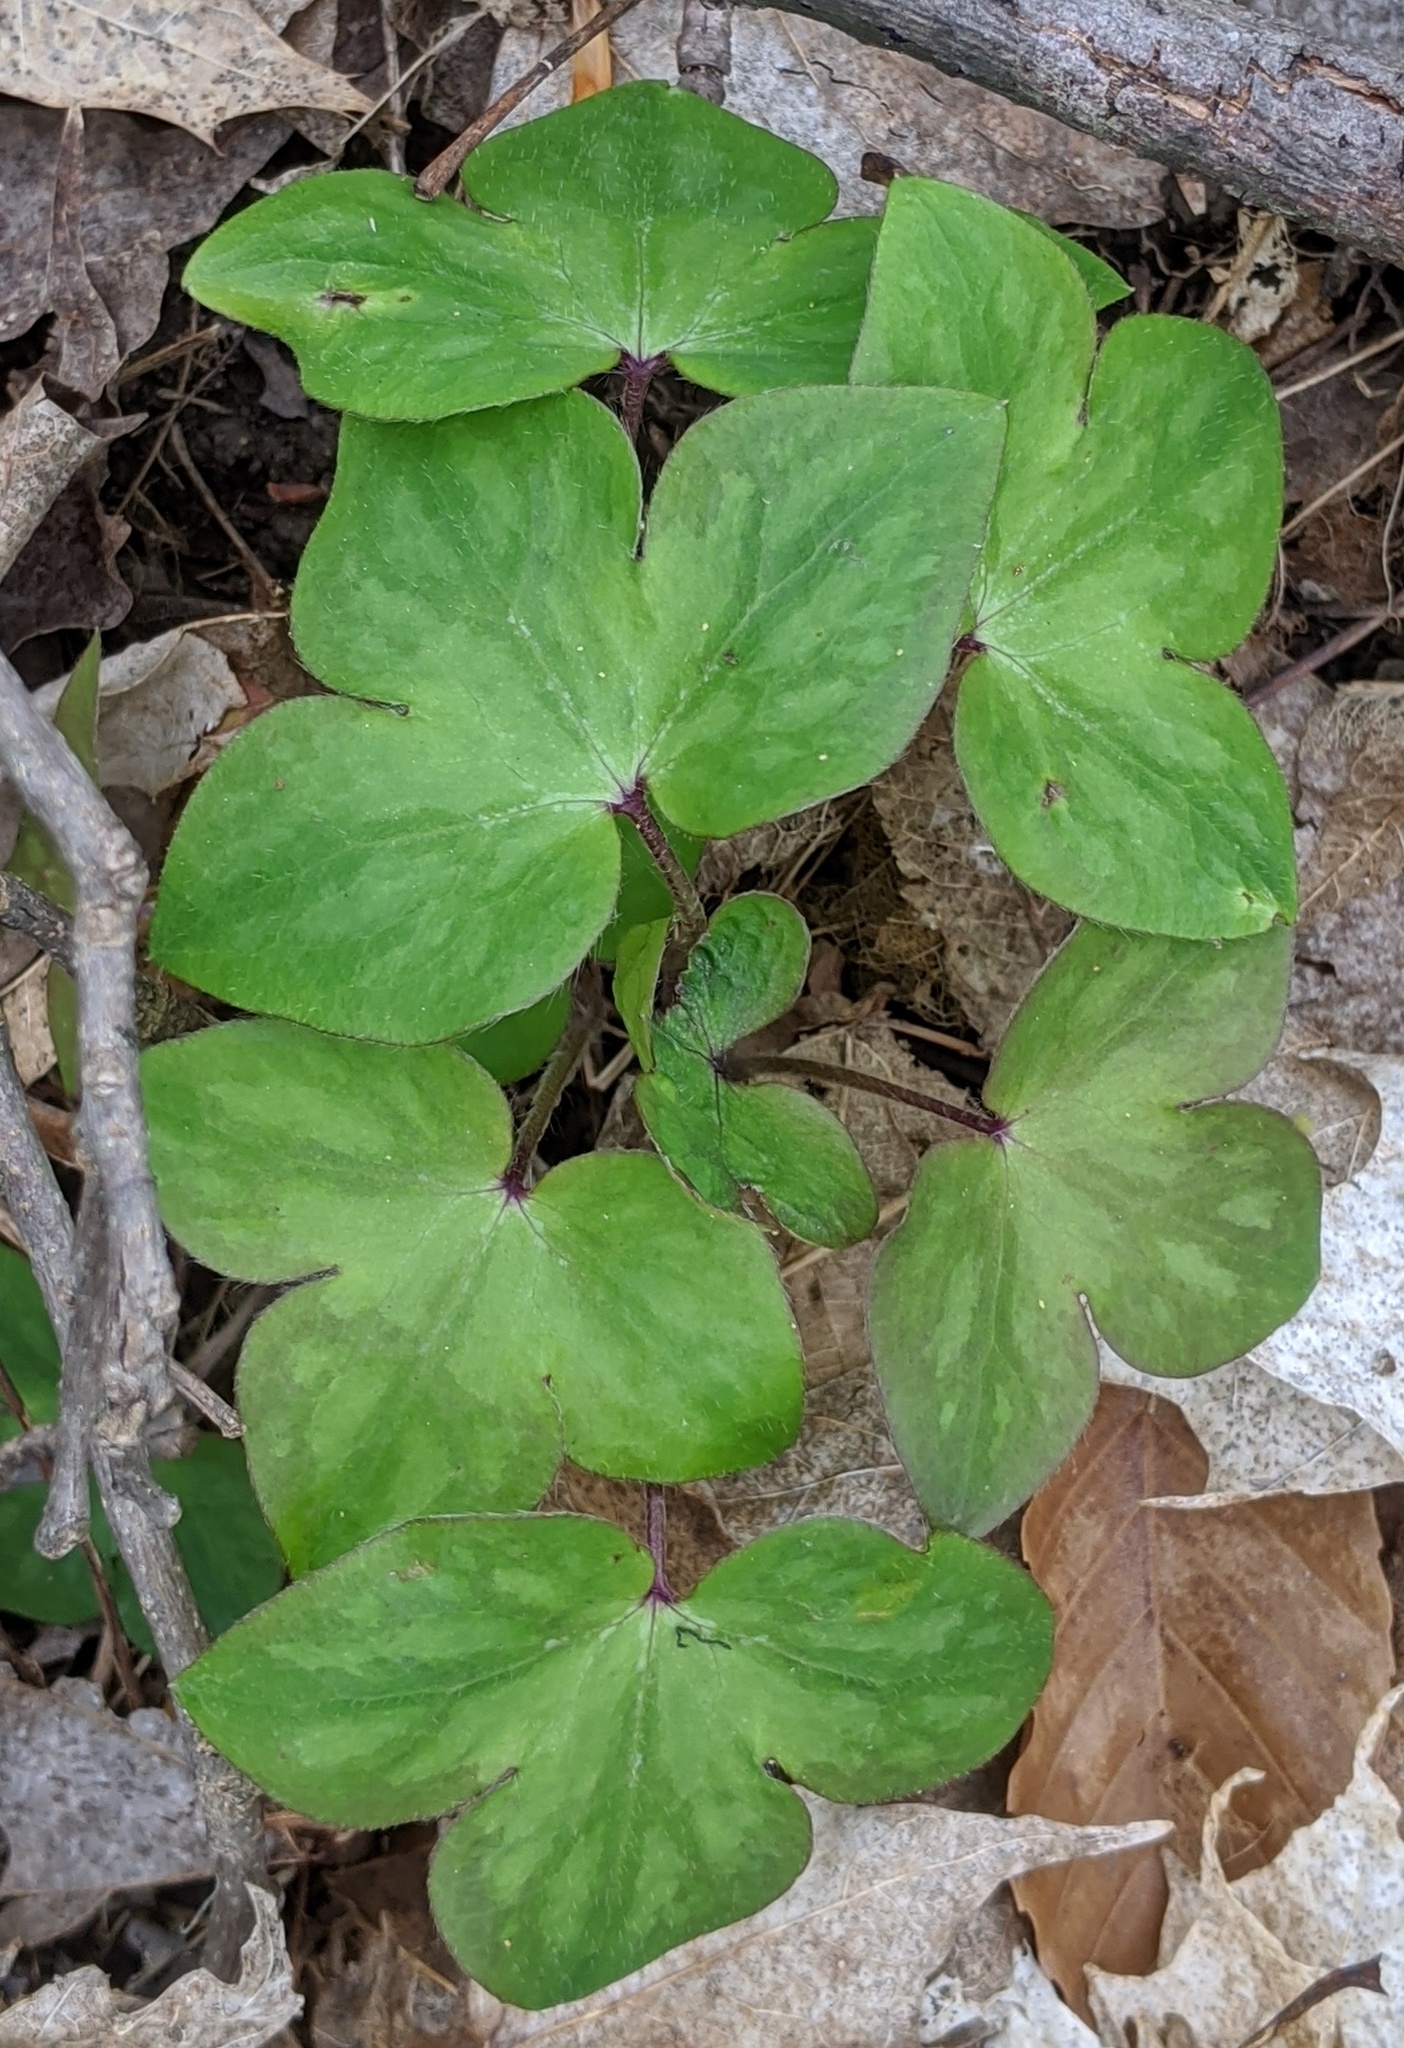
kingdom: Plantae
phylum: Tracheophyta
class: Magnoliopsida
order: Ranunculales
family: Ranunculaceae
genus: Hepatica
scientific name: Hepatica acutiloba
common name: Sharp-lobed hepatica
